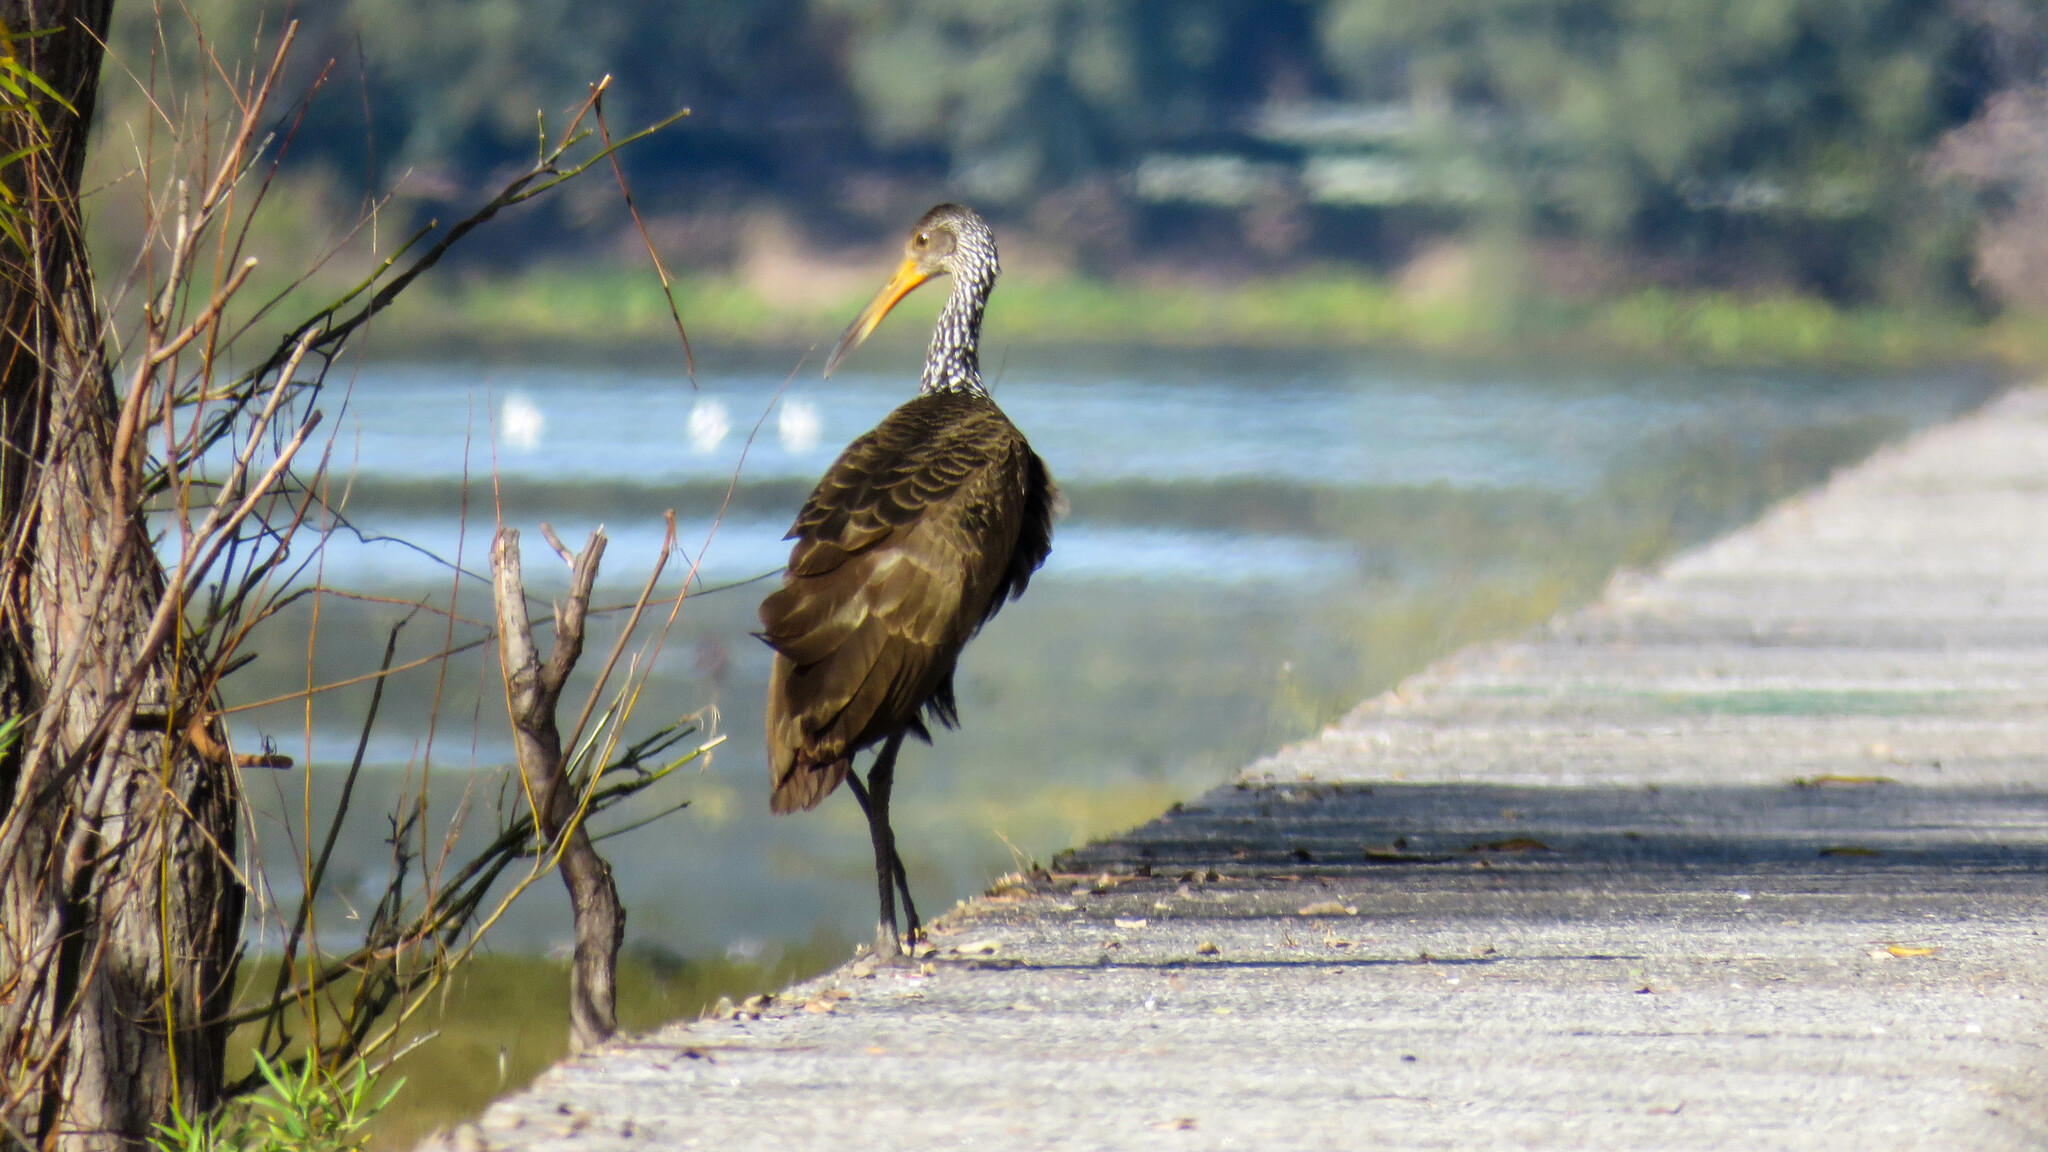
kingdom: Animalia
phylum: Chordata
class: Aves
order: Gruiformes
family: Aramidae
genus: Aramus
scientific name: Aramus guarauna
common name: Limpkin
